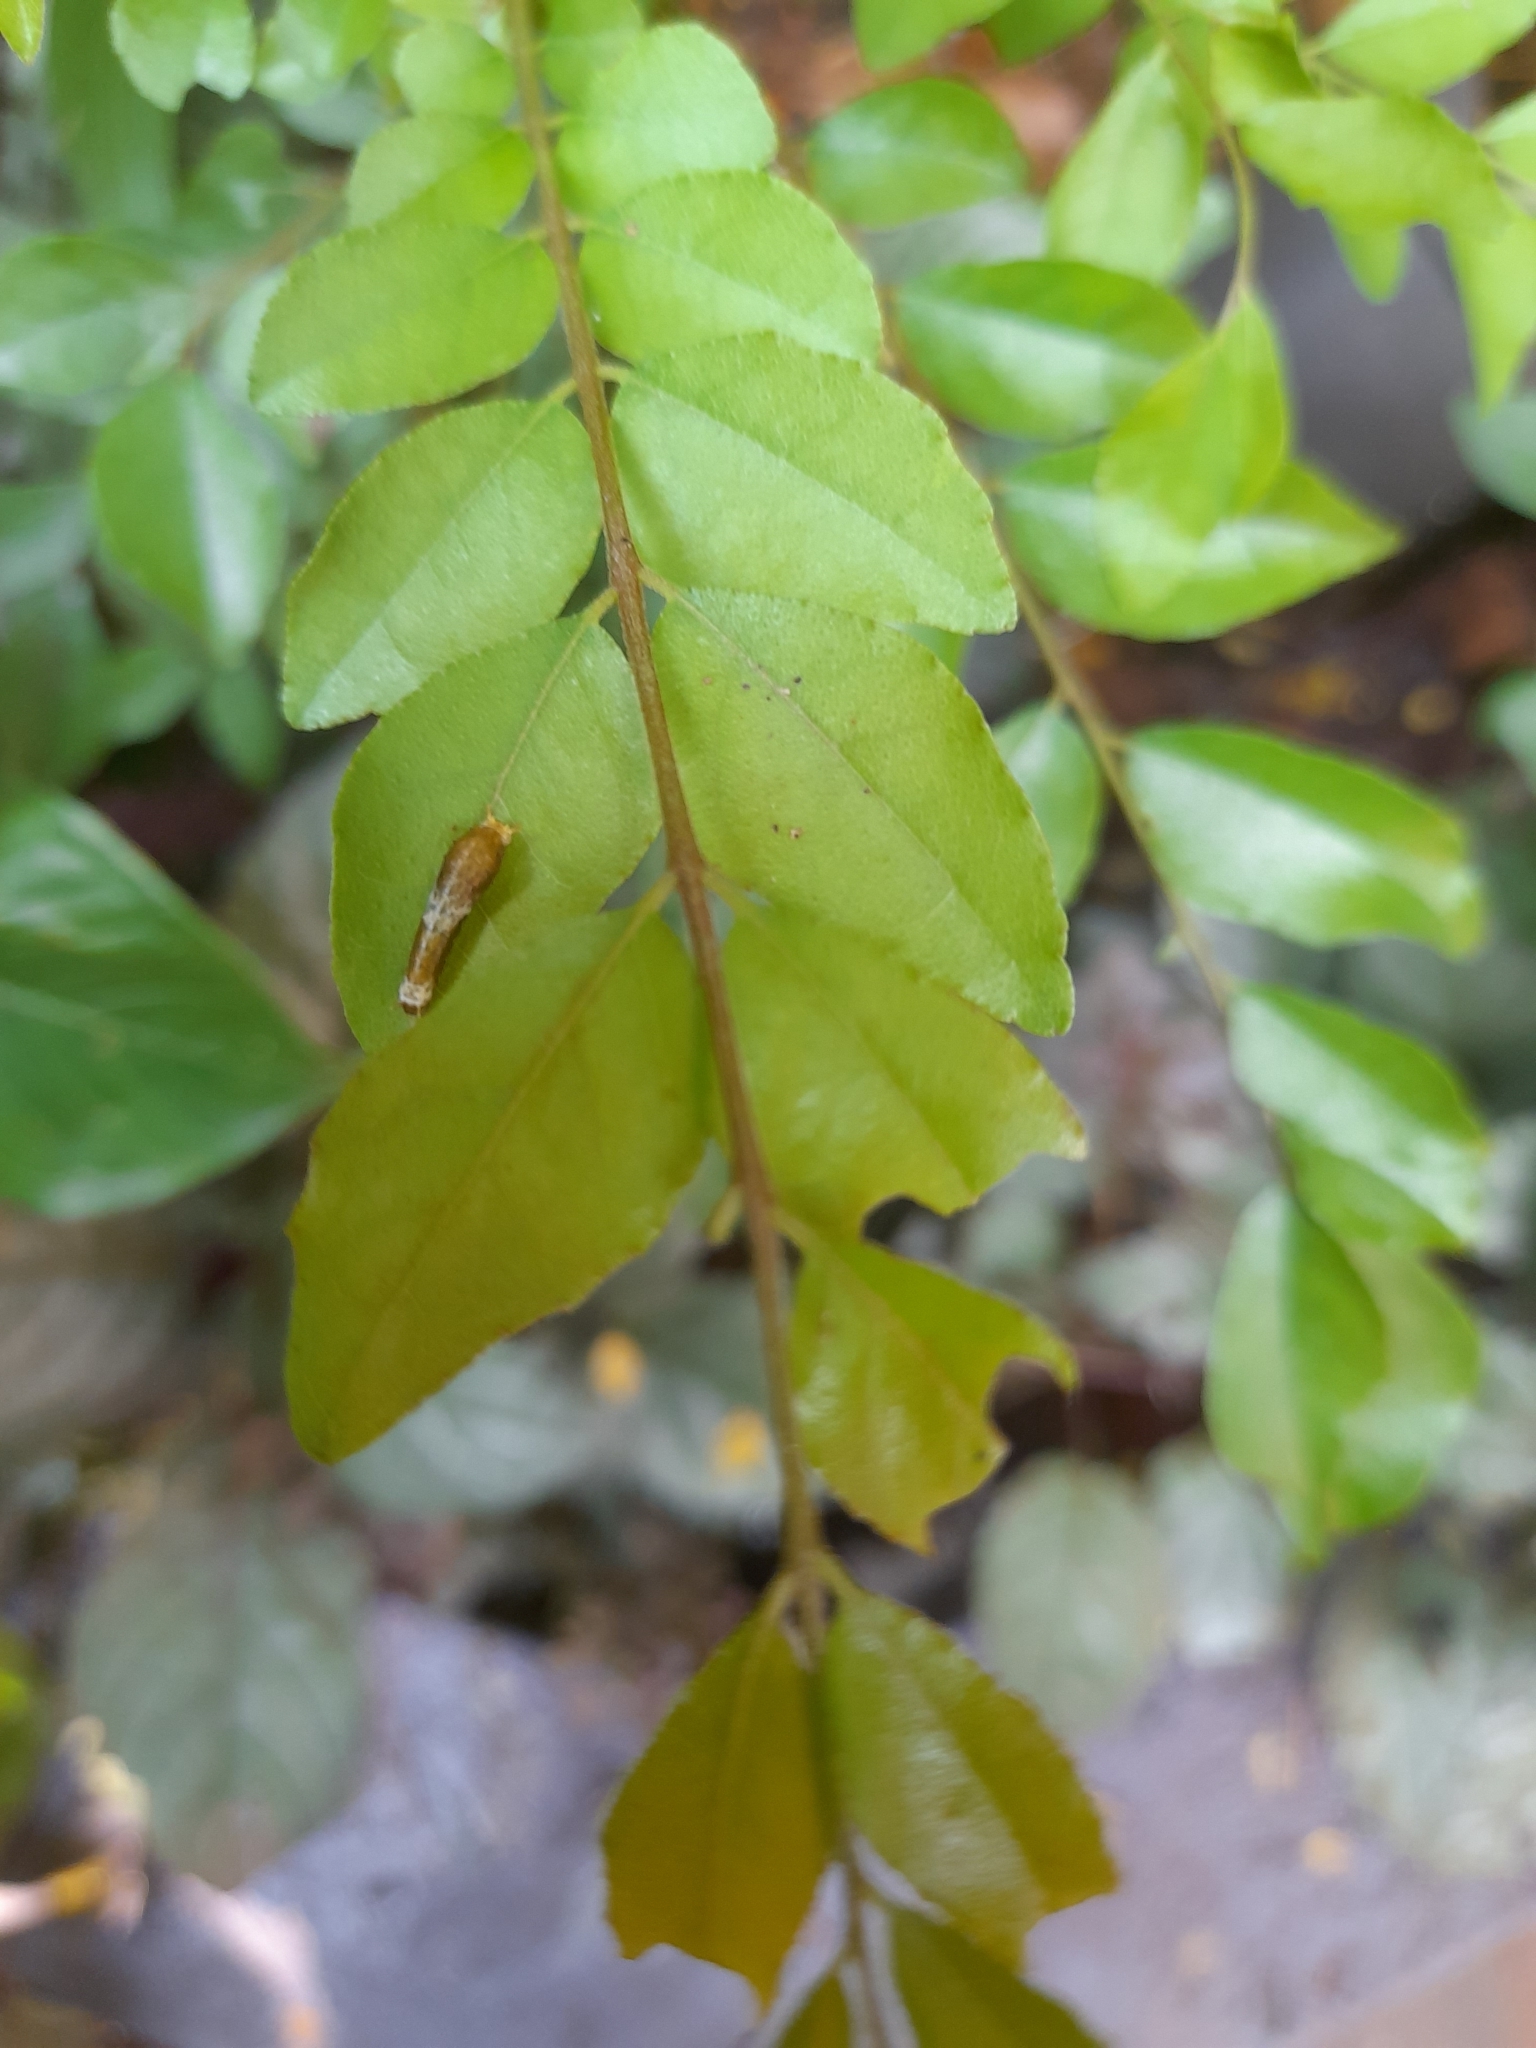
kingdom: Animalia
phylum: Arthropoda
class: Insecta
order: Lepidoptera
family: Papilionidae
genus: Papilio
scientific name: Papilio polytes
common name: Common mormon
